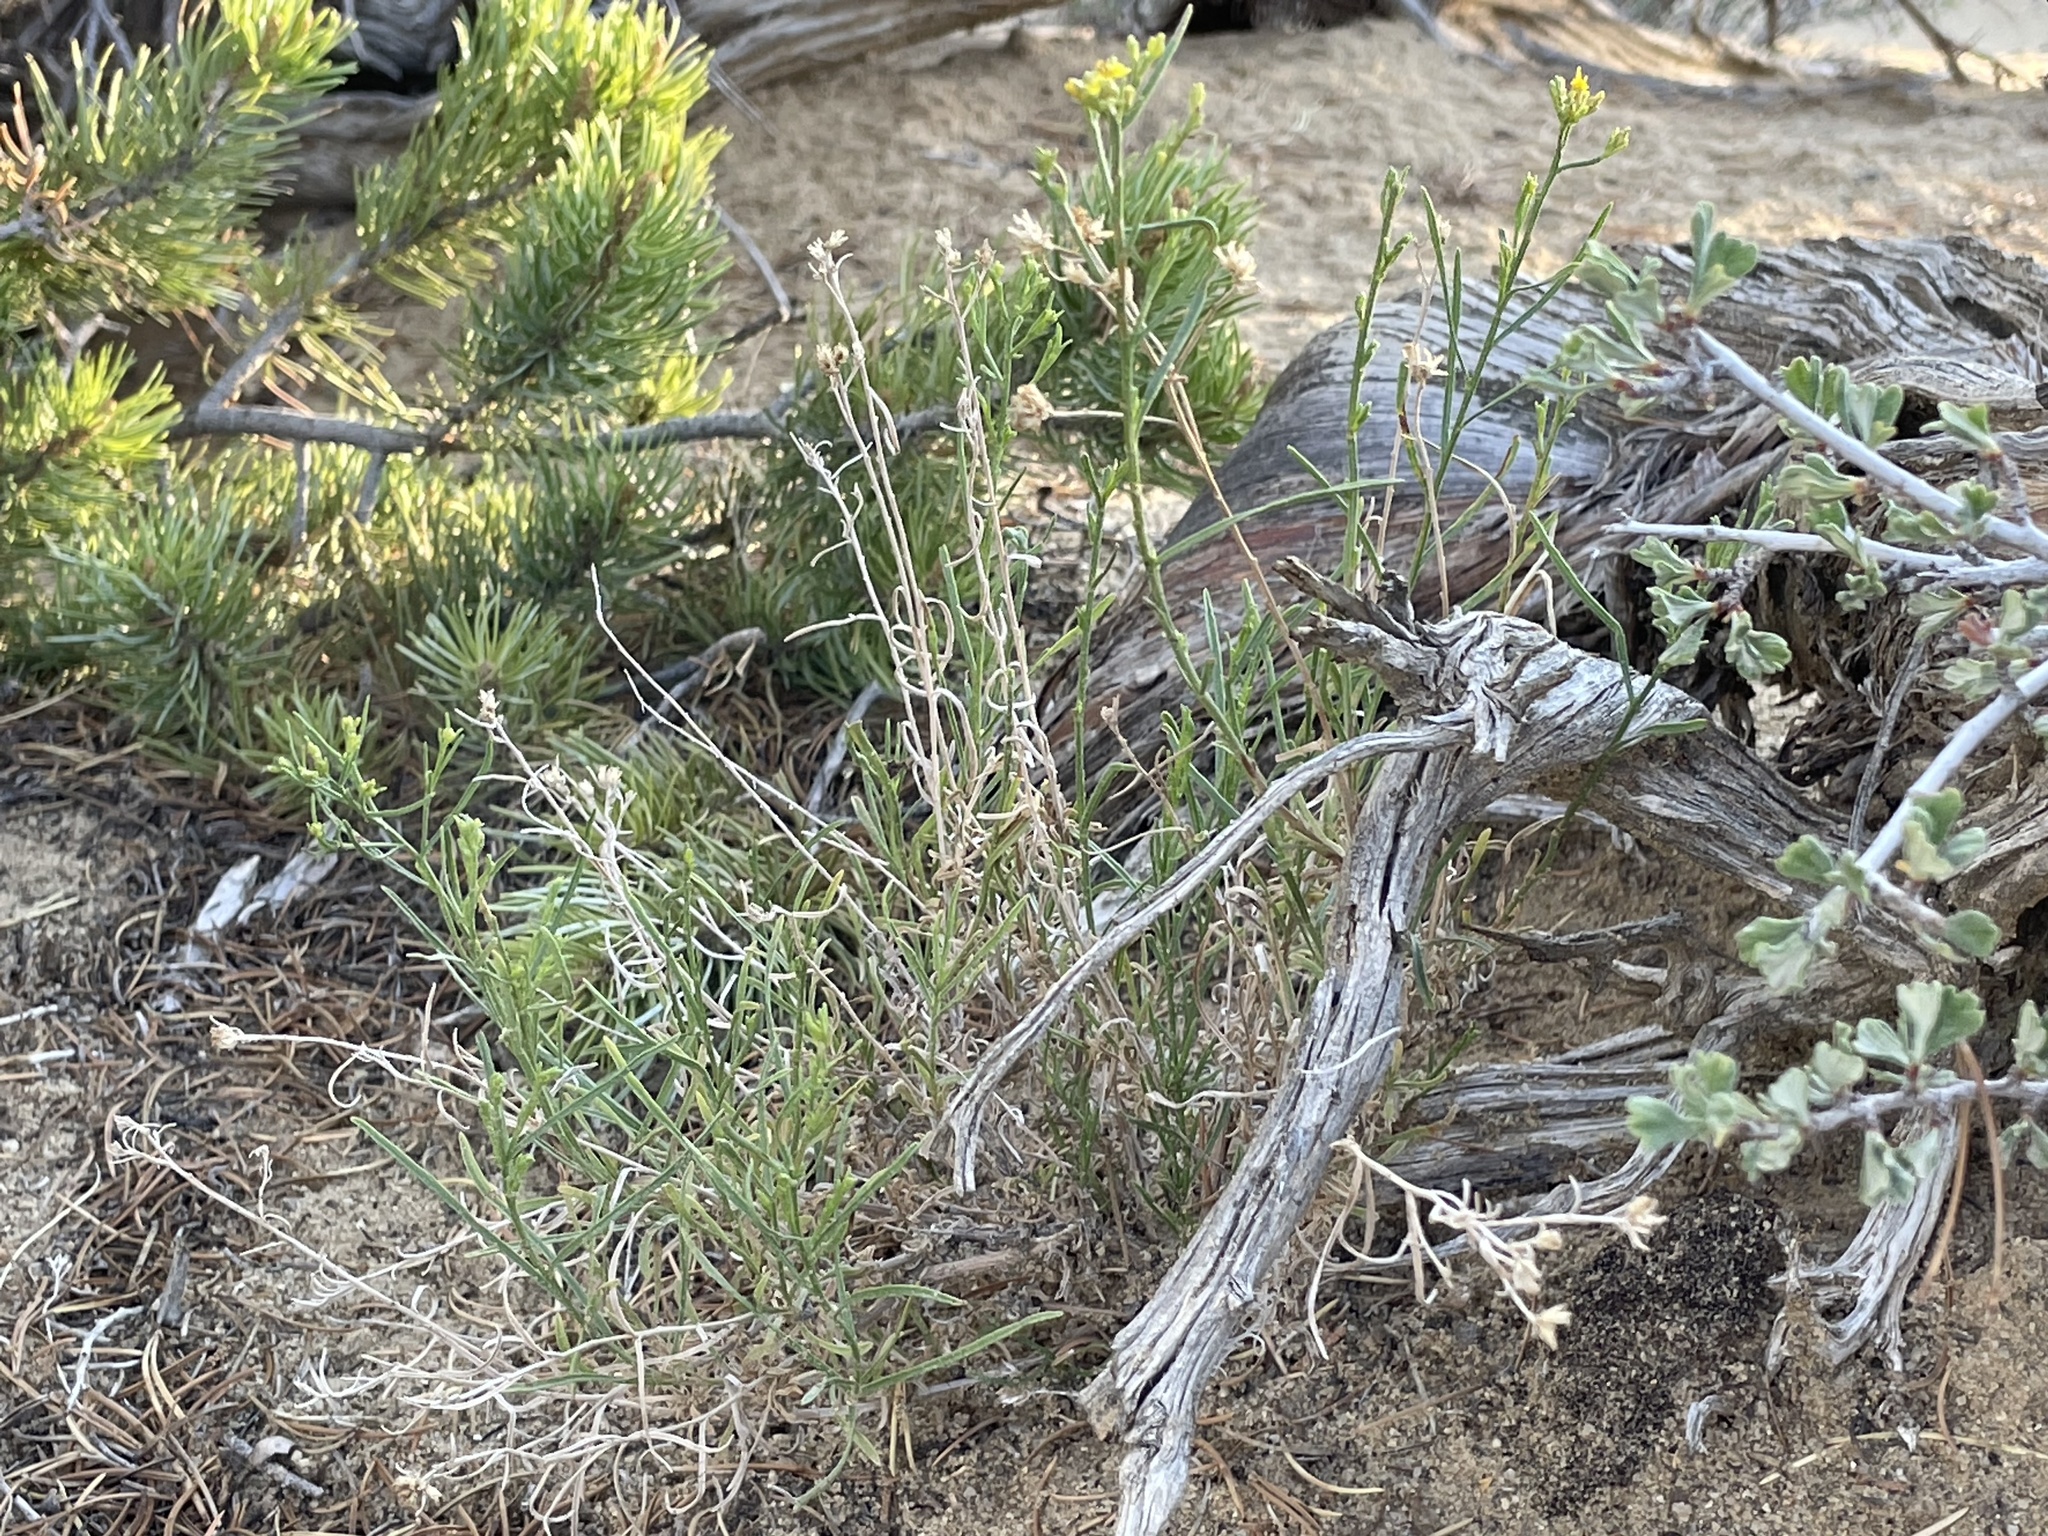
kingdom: Plantae
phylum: Tracheophyta
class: Magnoliopsida
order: Asterales
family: Asteraceae
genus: Gutierrezia
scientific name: Gutierrezia sarothrae
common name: Broom snakeweed
